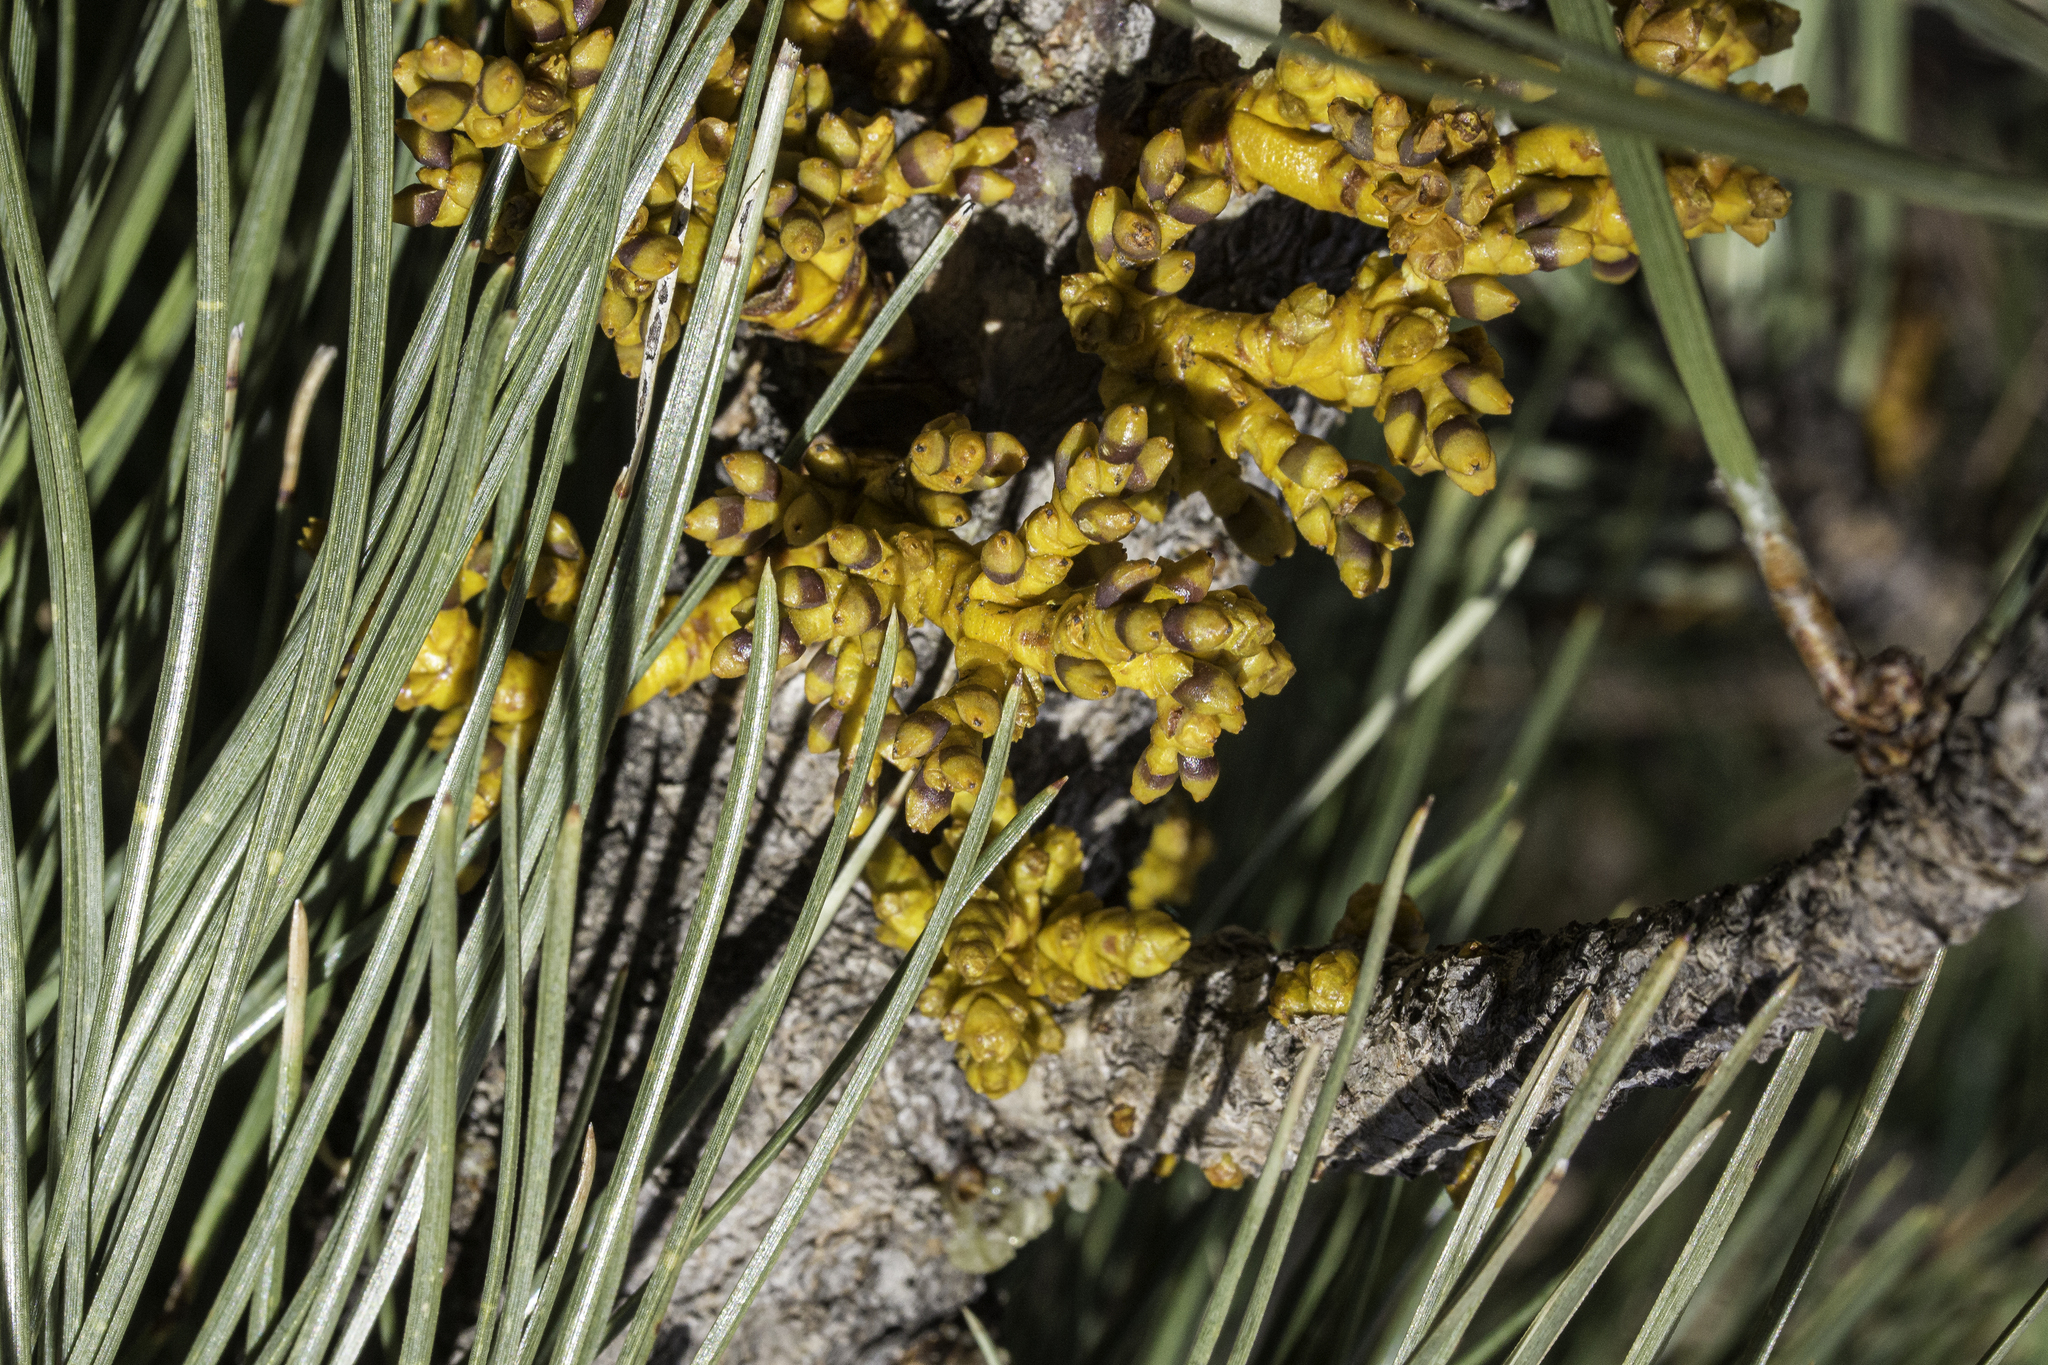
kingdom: Plantae
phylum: Tracheophyta
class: Magnoliopsida
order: Santalales
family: Viscaceae
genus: Arceuthobium
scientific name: Arceuthobium vaginatum
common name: Southwestern dwarf-mistletoe
